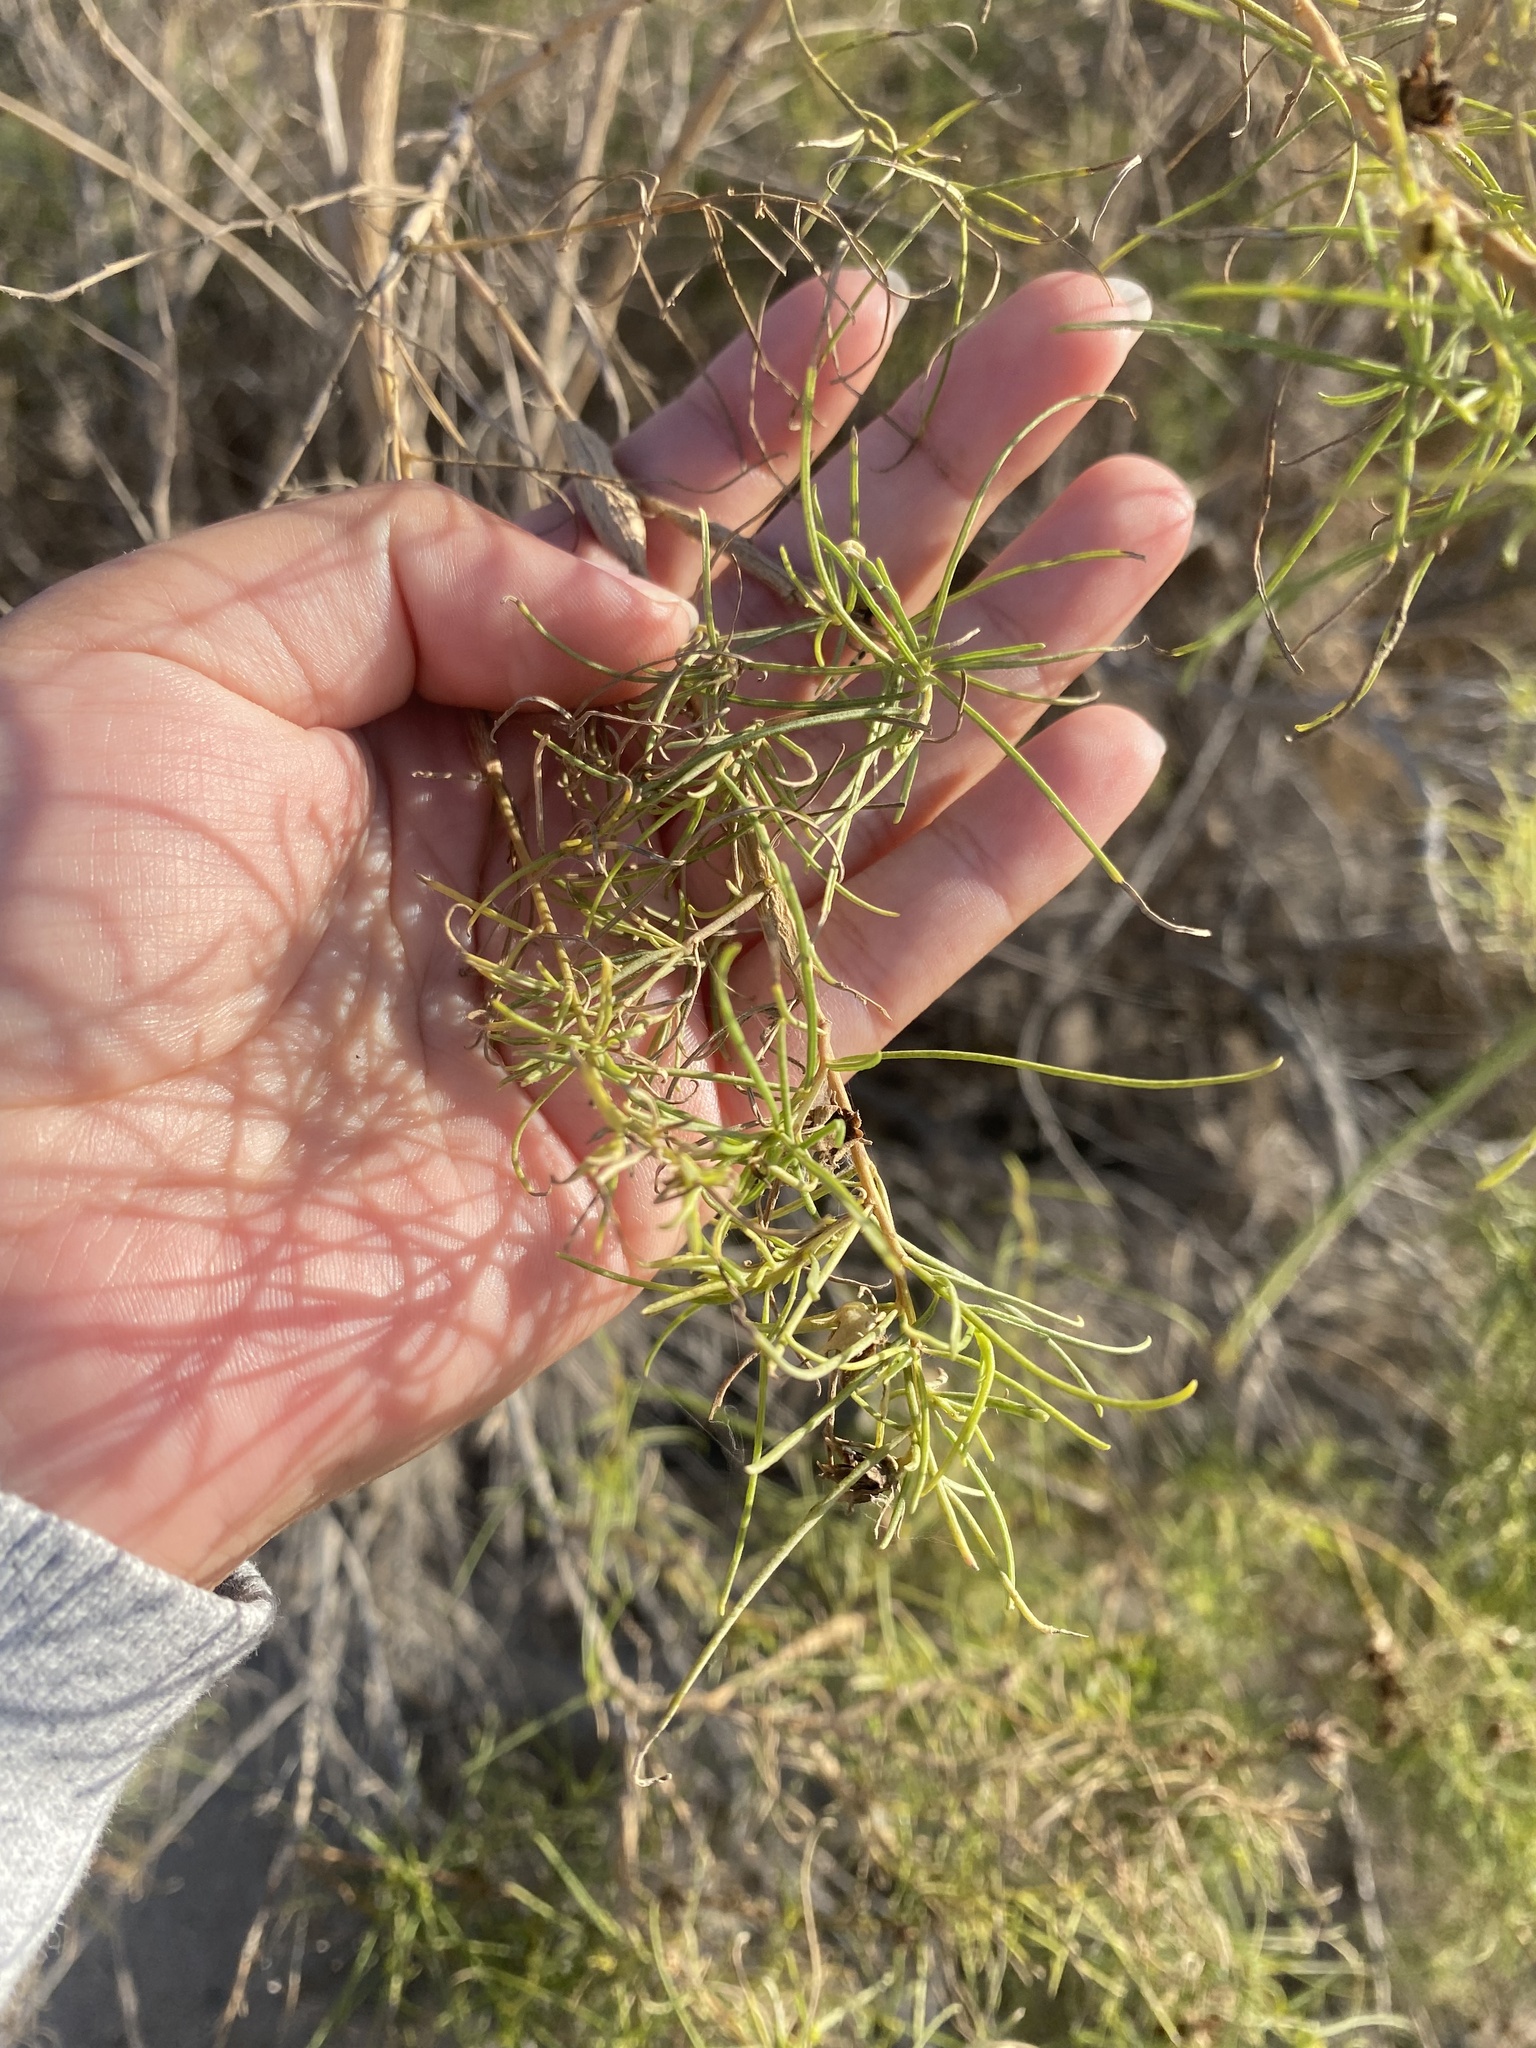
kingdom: Plantae
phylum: Tracheophyta
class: Magnoliopsida
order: Asterales
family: Asteraceae
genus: Ambrosia
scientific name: Ambrosia monogyra
